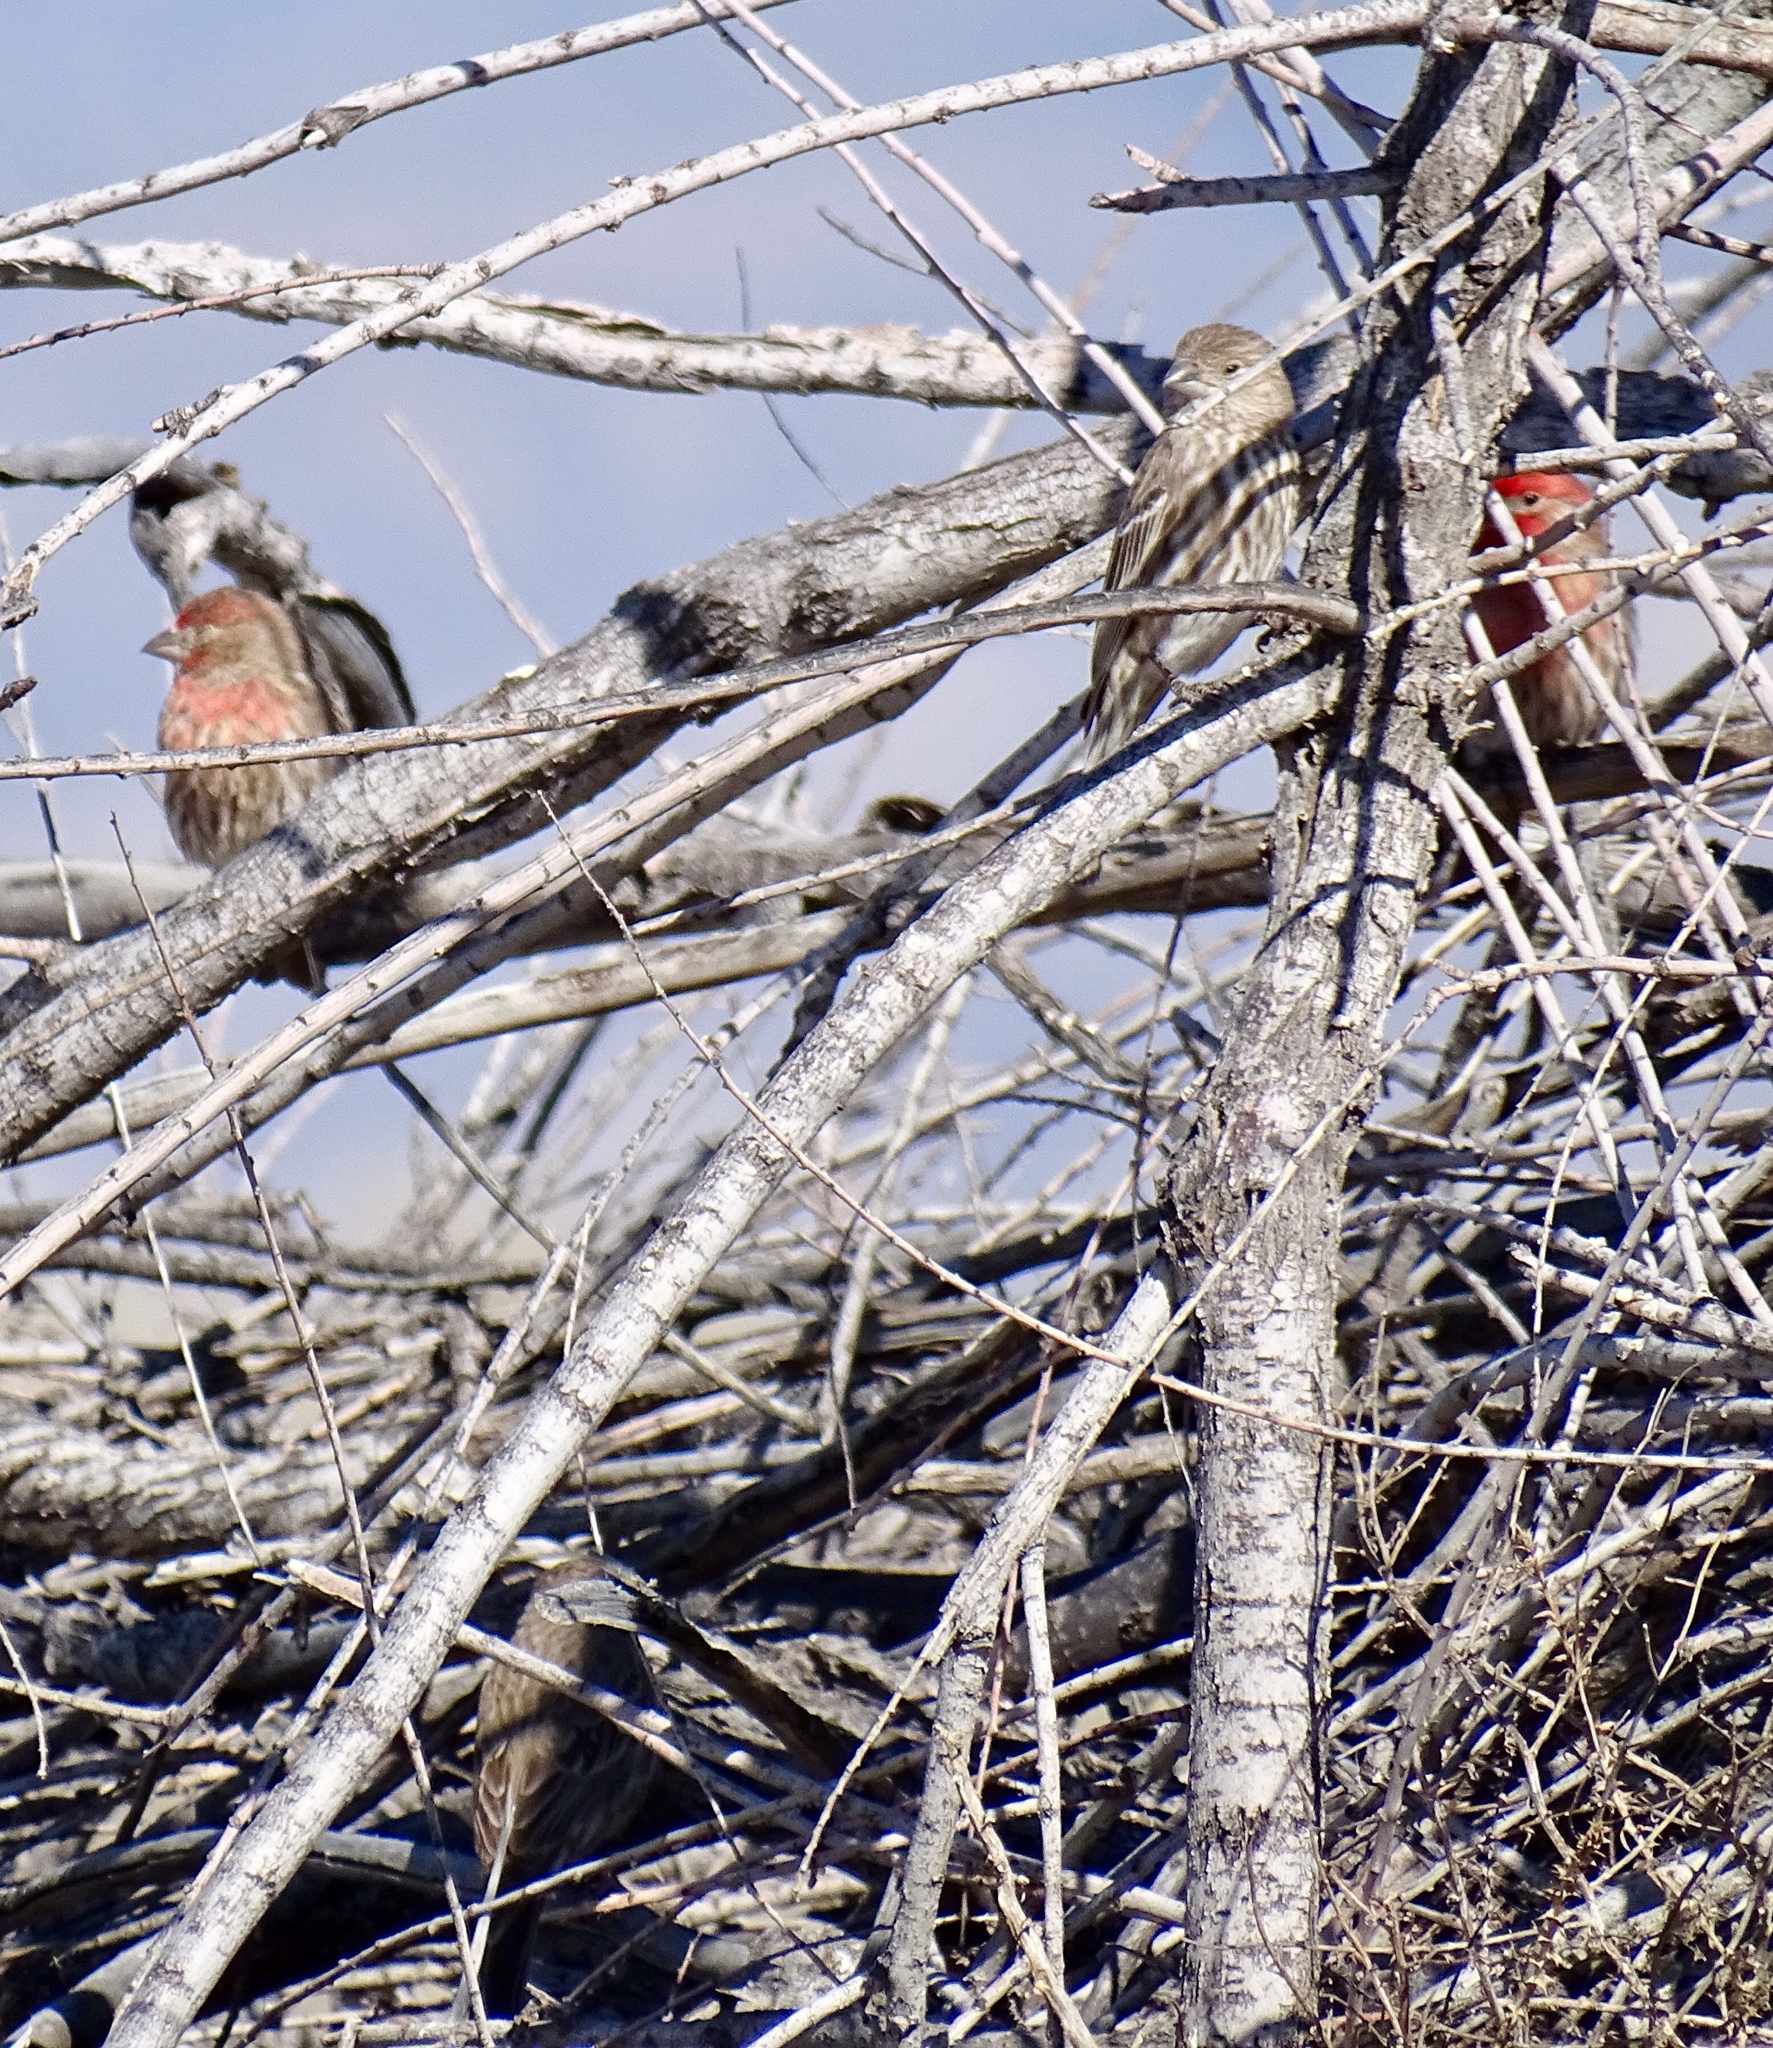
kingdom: Animalia
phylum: Chordata
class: Aves
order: Passeriformes
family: Fringillidae
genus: Haemorhous
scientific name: Haemorhous mexicanus
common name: House finch
